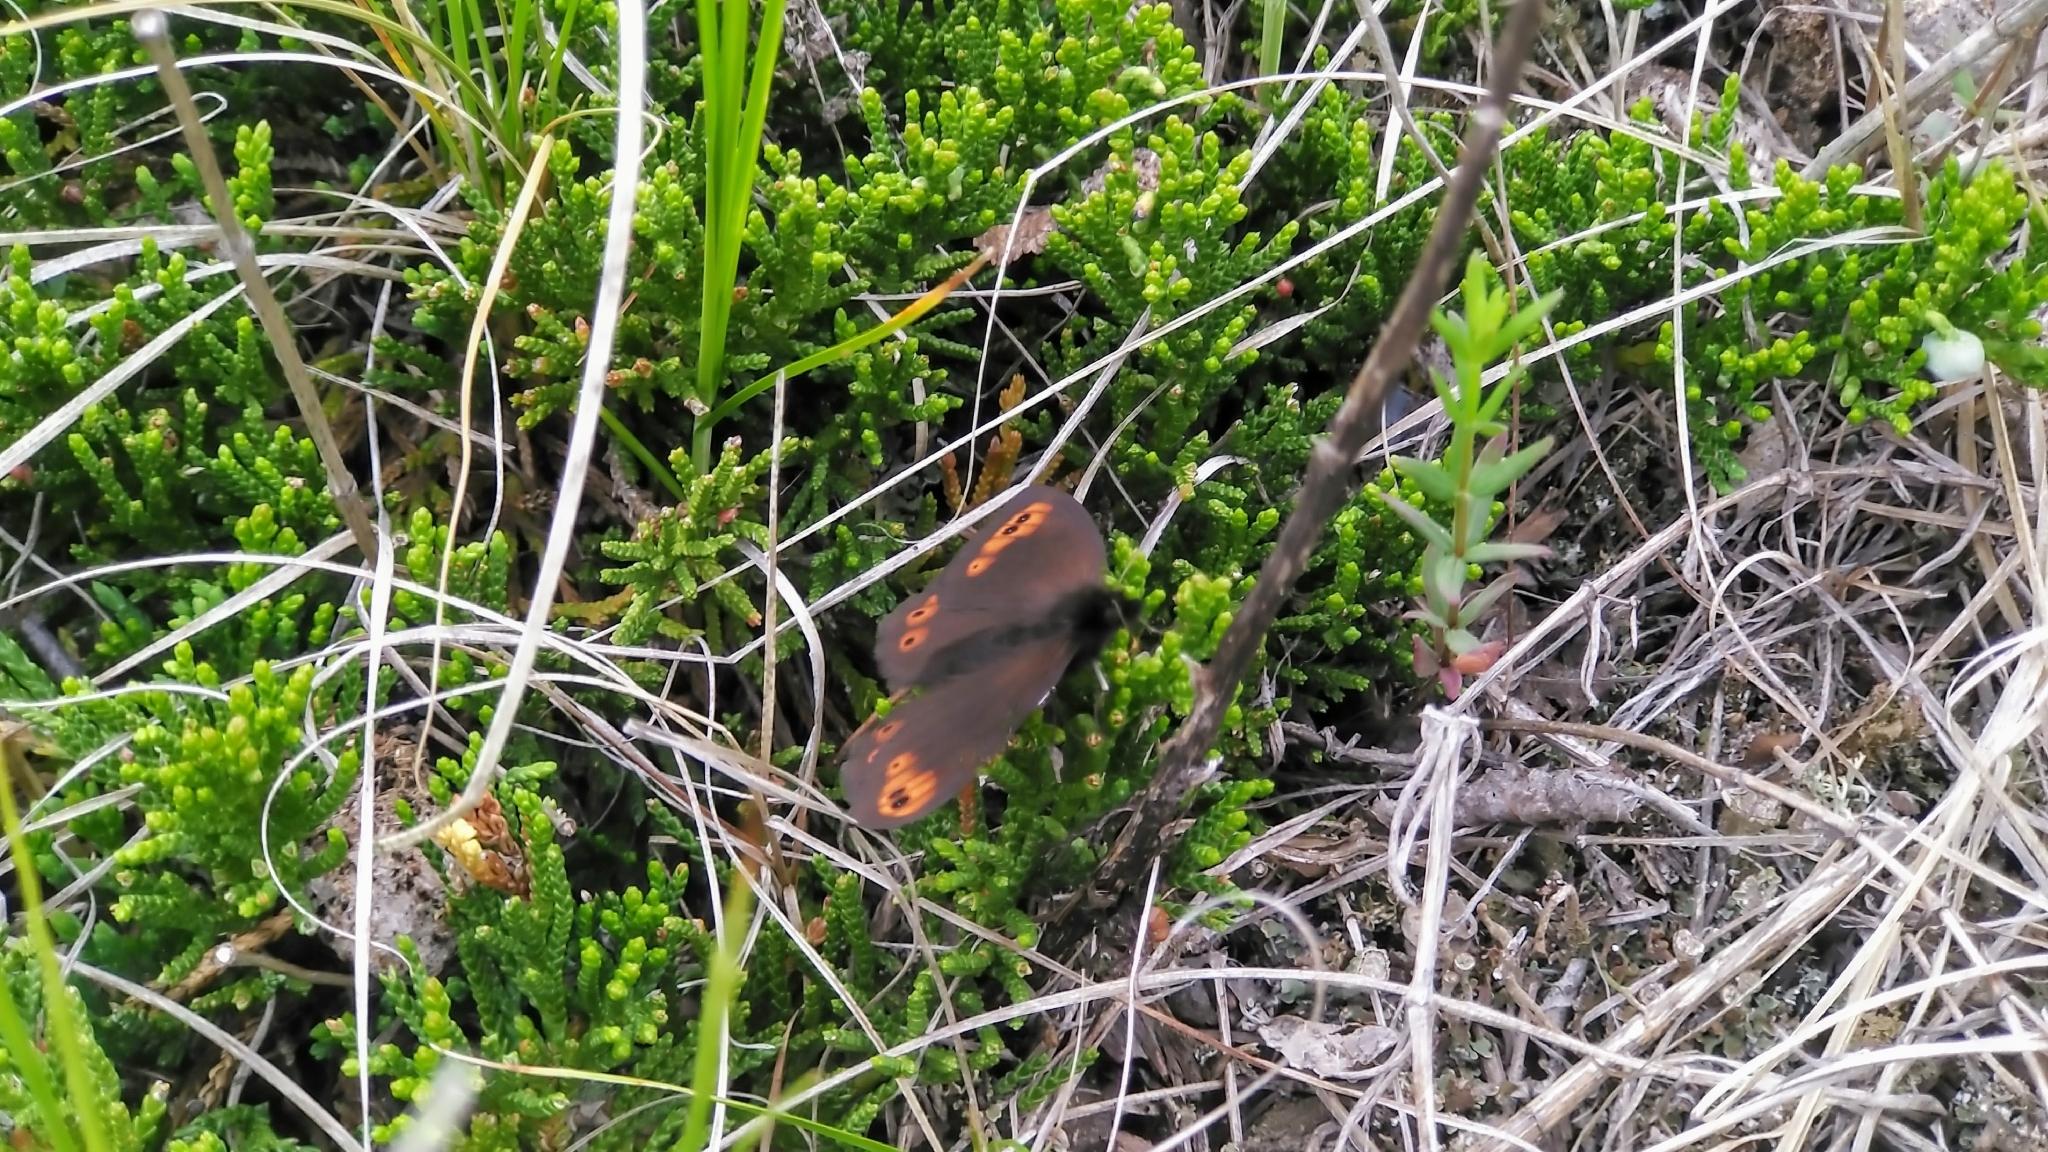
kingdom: Animalia
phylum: Arthropoda
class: Insecta
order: Lepidoptera
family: Nymphalidae
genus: Erebia
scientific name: Erebia epipsodea
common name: Common alpine
